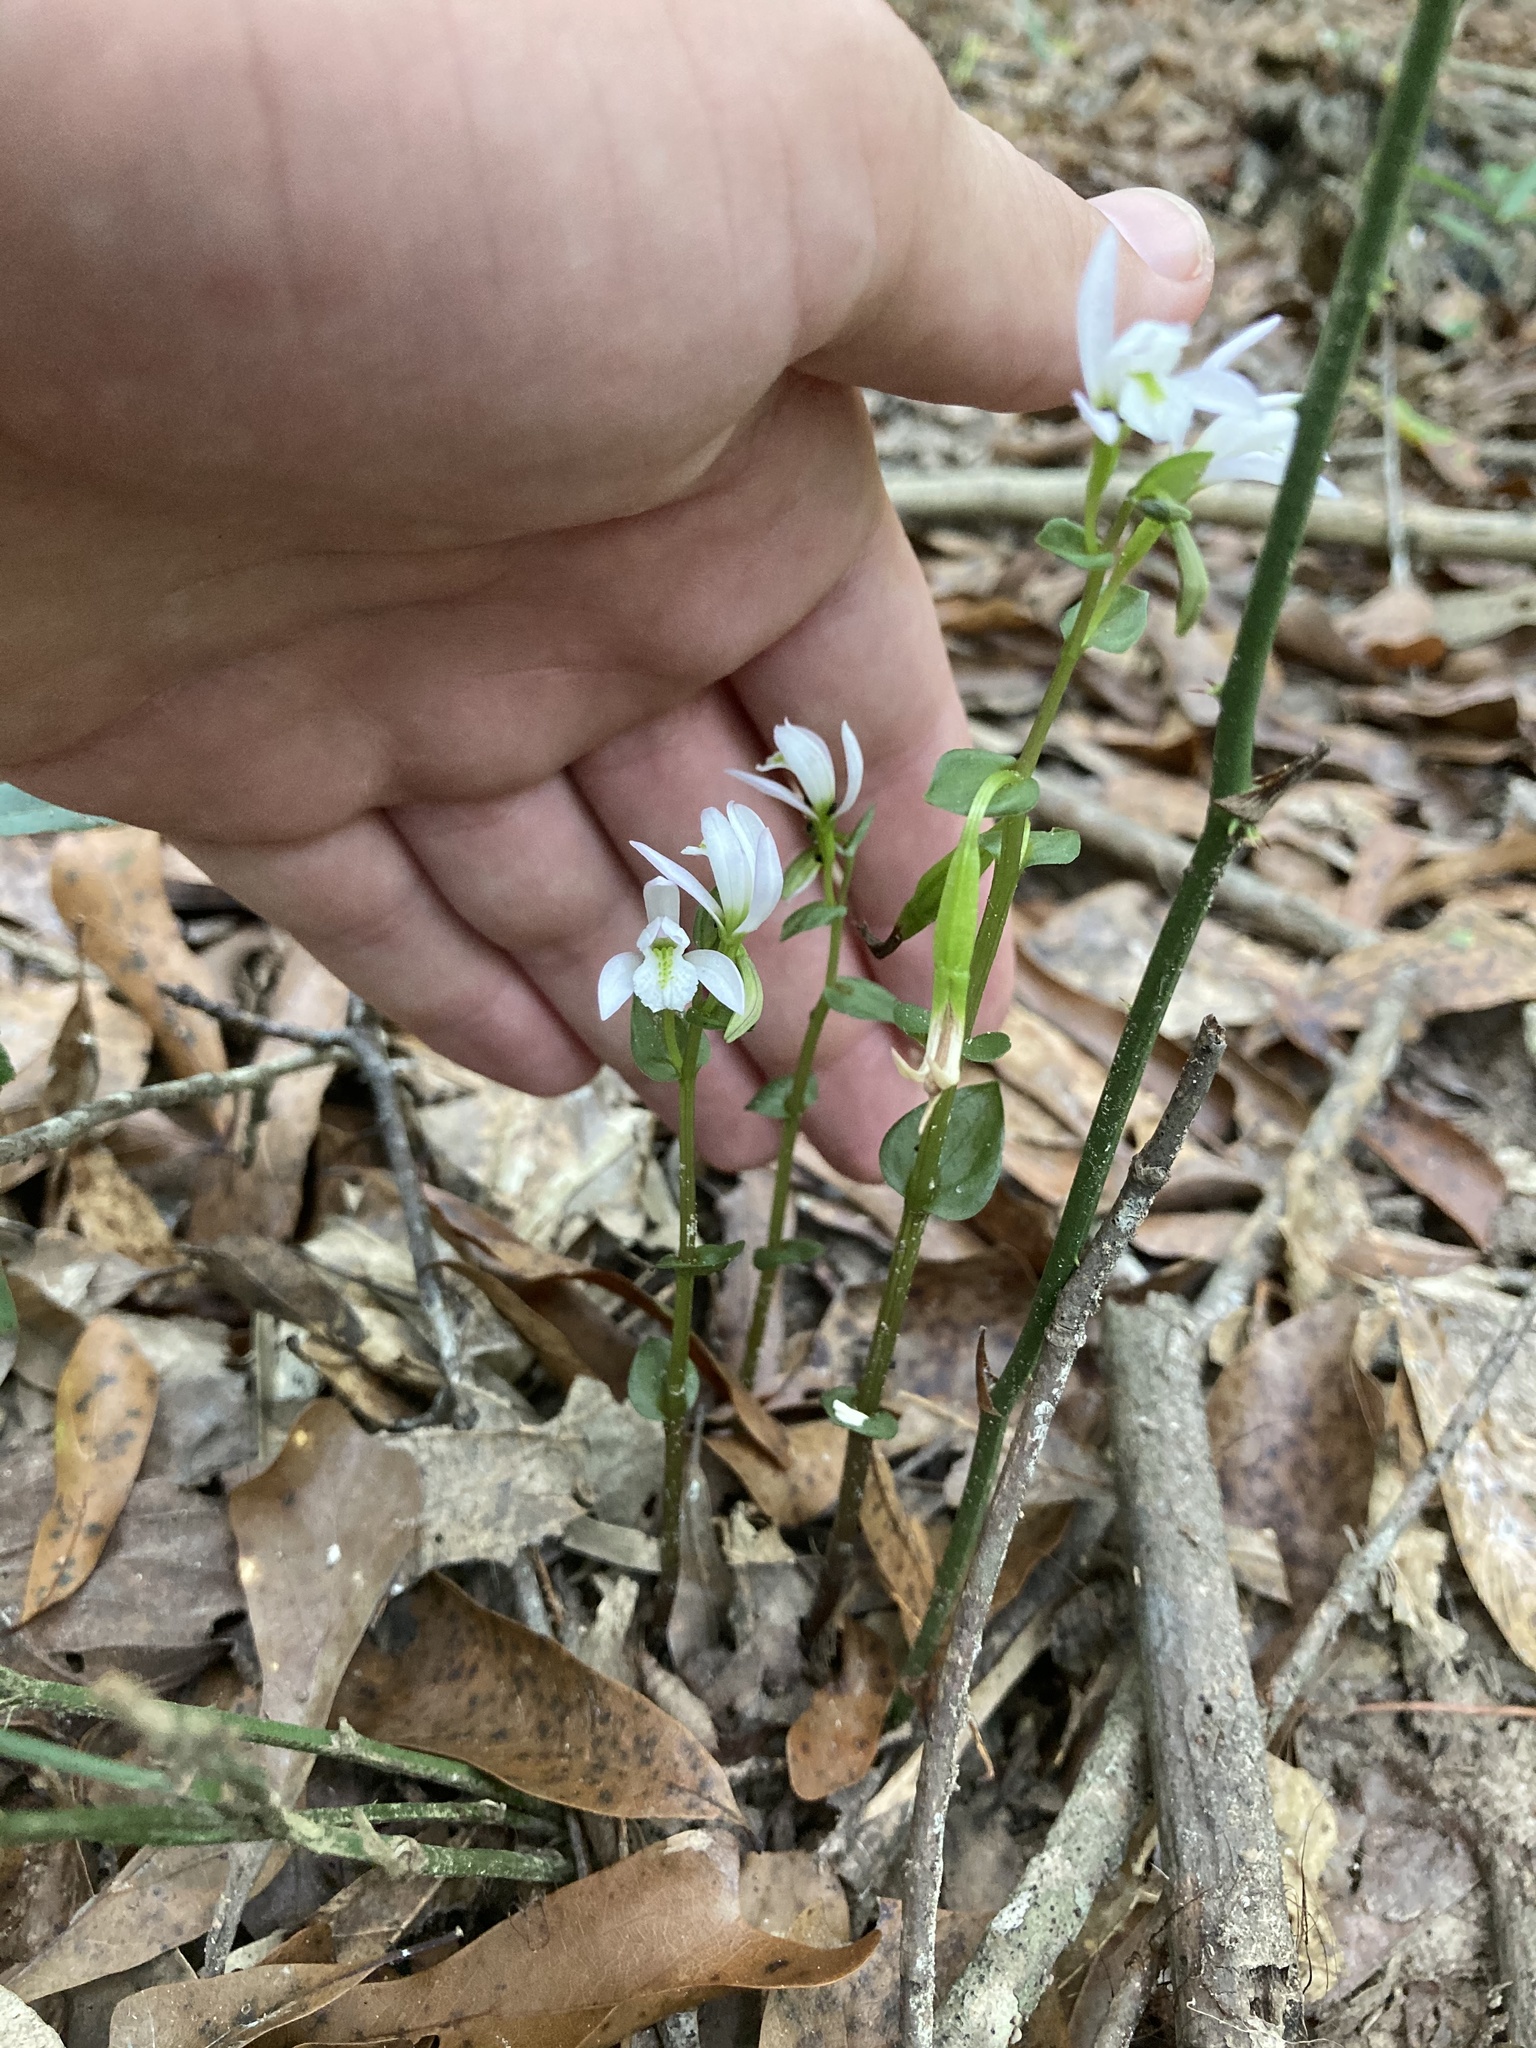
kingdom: Plantae
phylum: Tracheophyta
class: Liliopsida
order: Asparagales
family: Orchidaceae
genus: Triphora
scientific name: Triphora trianthophoros
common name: Three birds orchid
